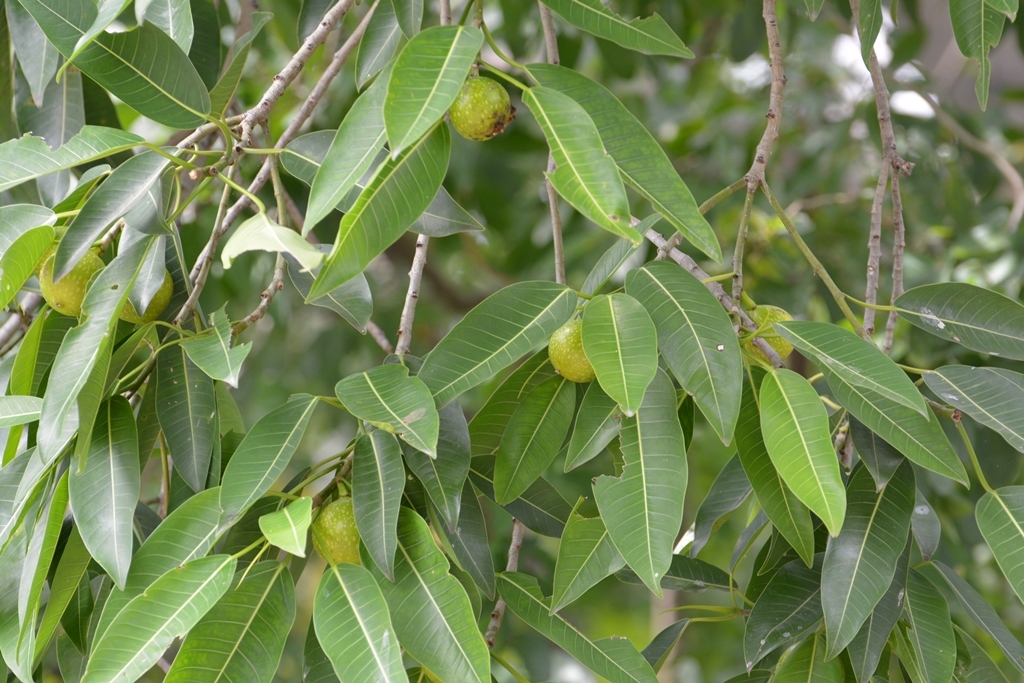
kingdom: Plantae
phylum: Tracheophyta
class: Magnoliopsida
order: Rosales
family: Moraceae
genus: Ficus
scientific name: Ficus insipida
